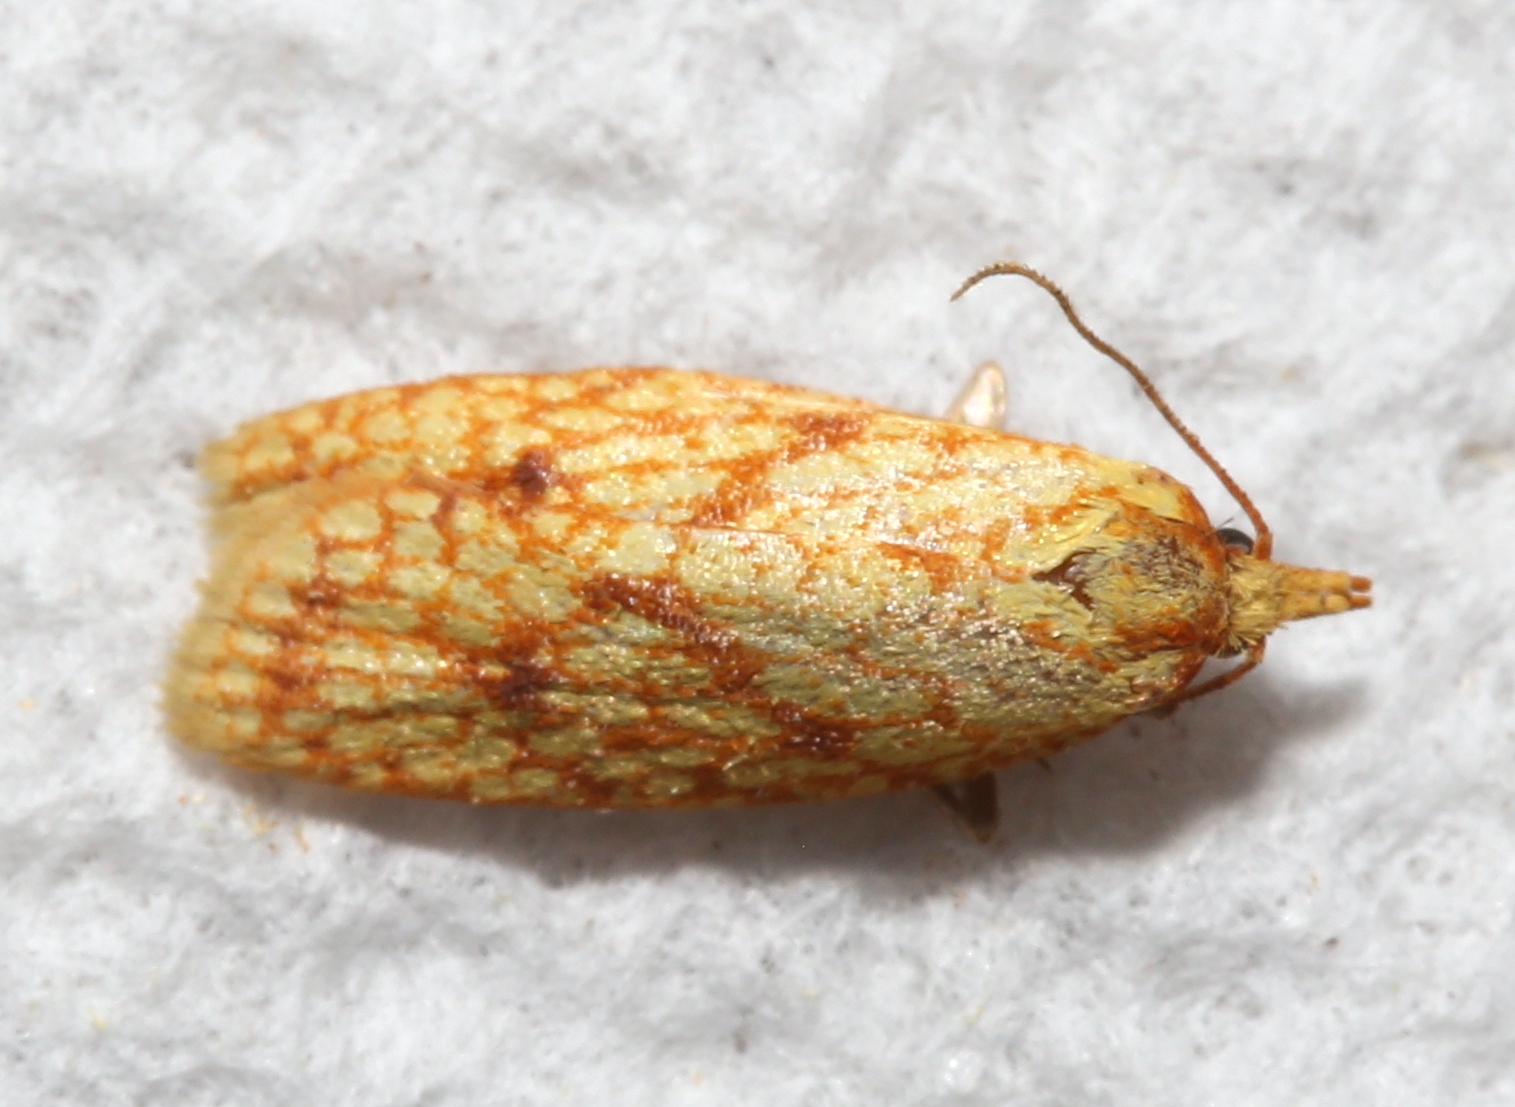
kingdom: Animalia
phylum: Arthropoda
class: Insecta
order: Lepidoptera
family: Tortricidae
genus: Sparganothis
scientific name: Sparganothis sulfureana
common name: Sparganothis fruitworm moth
